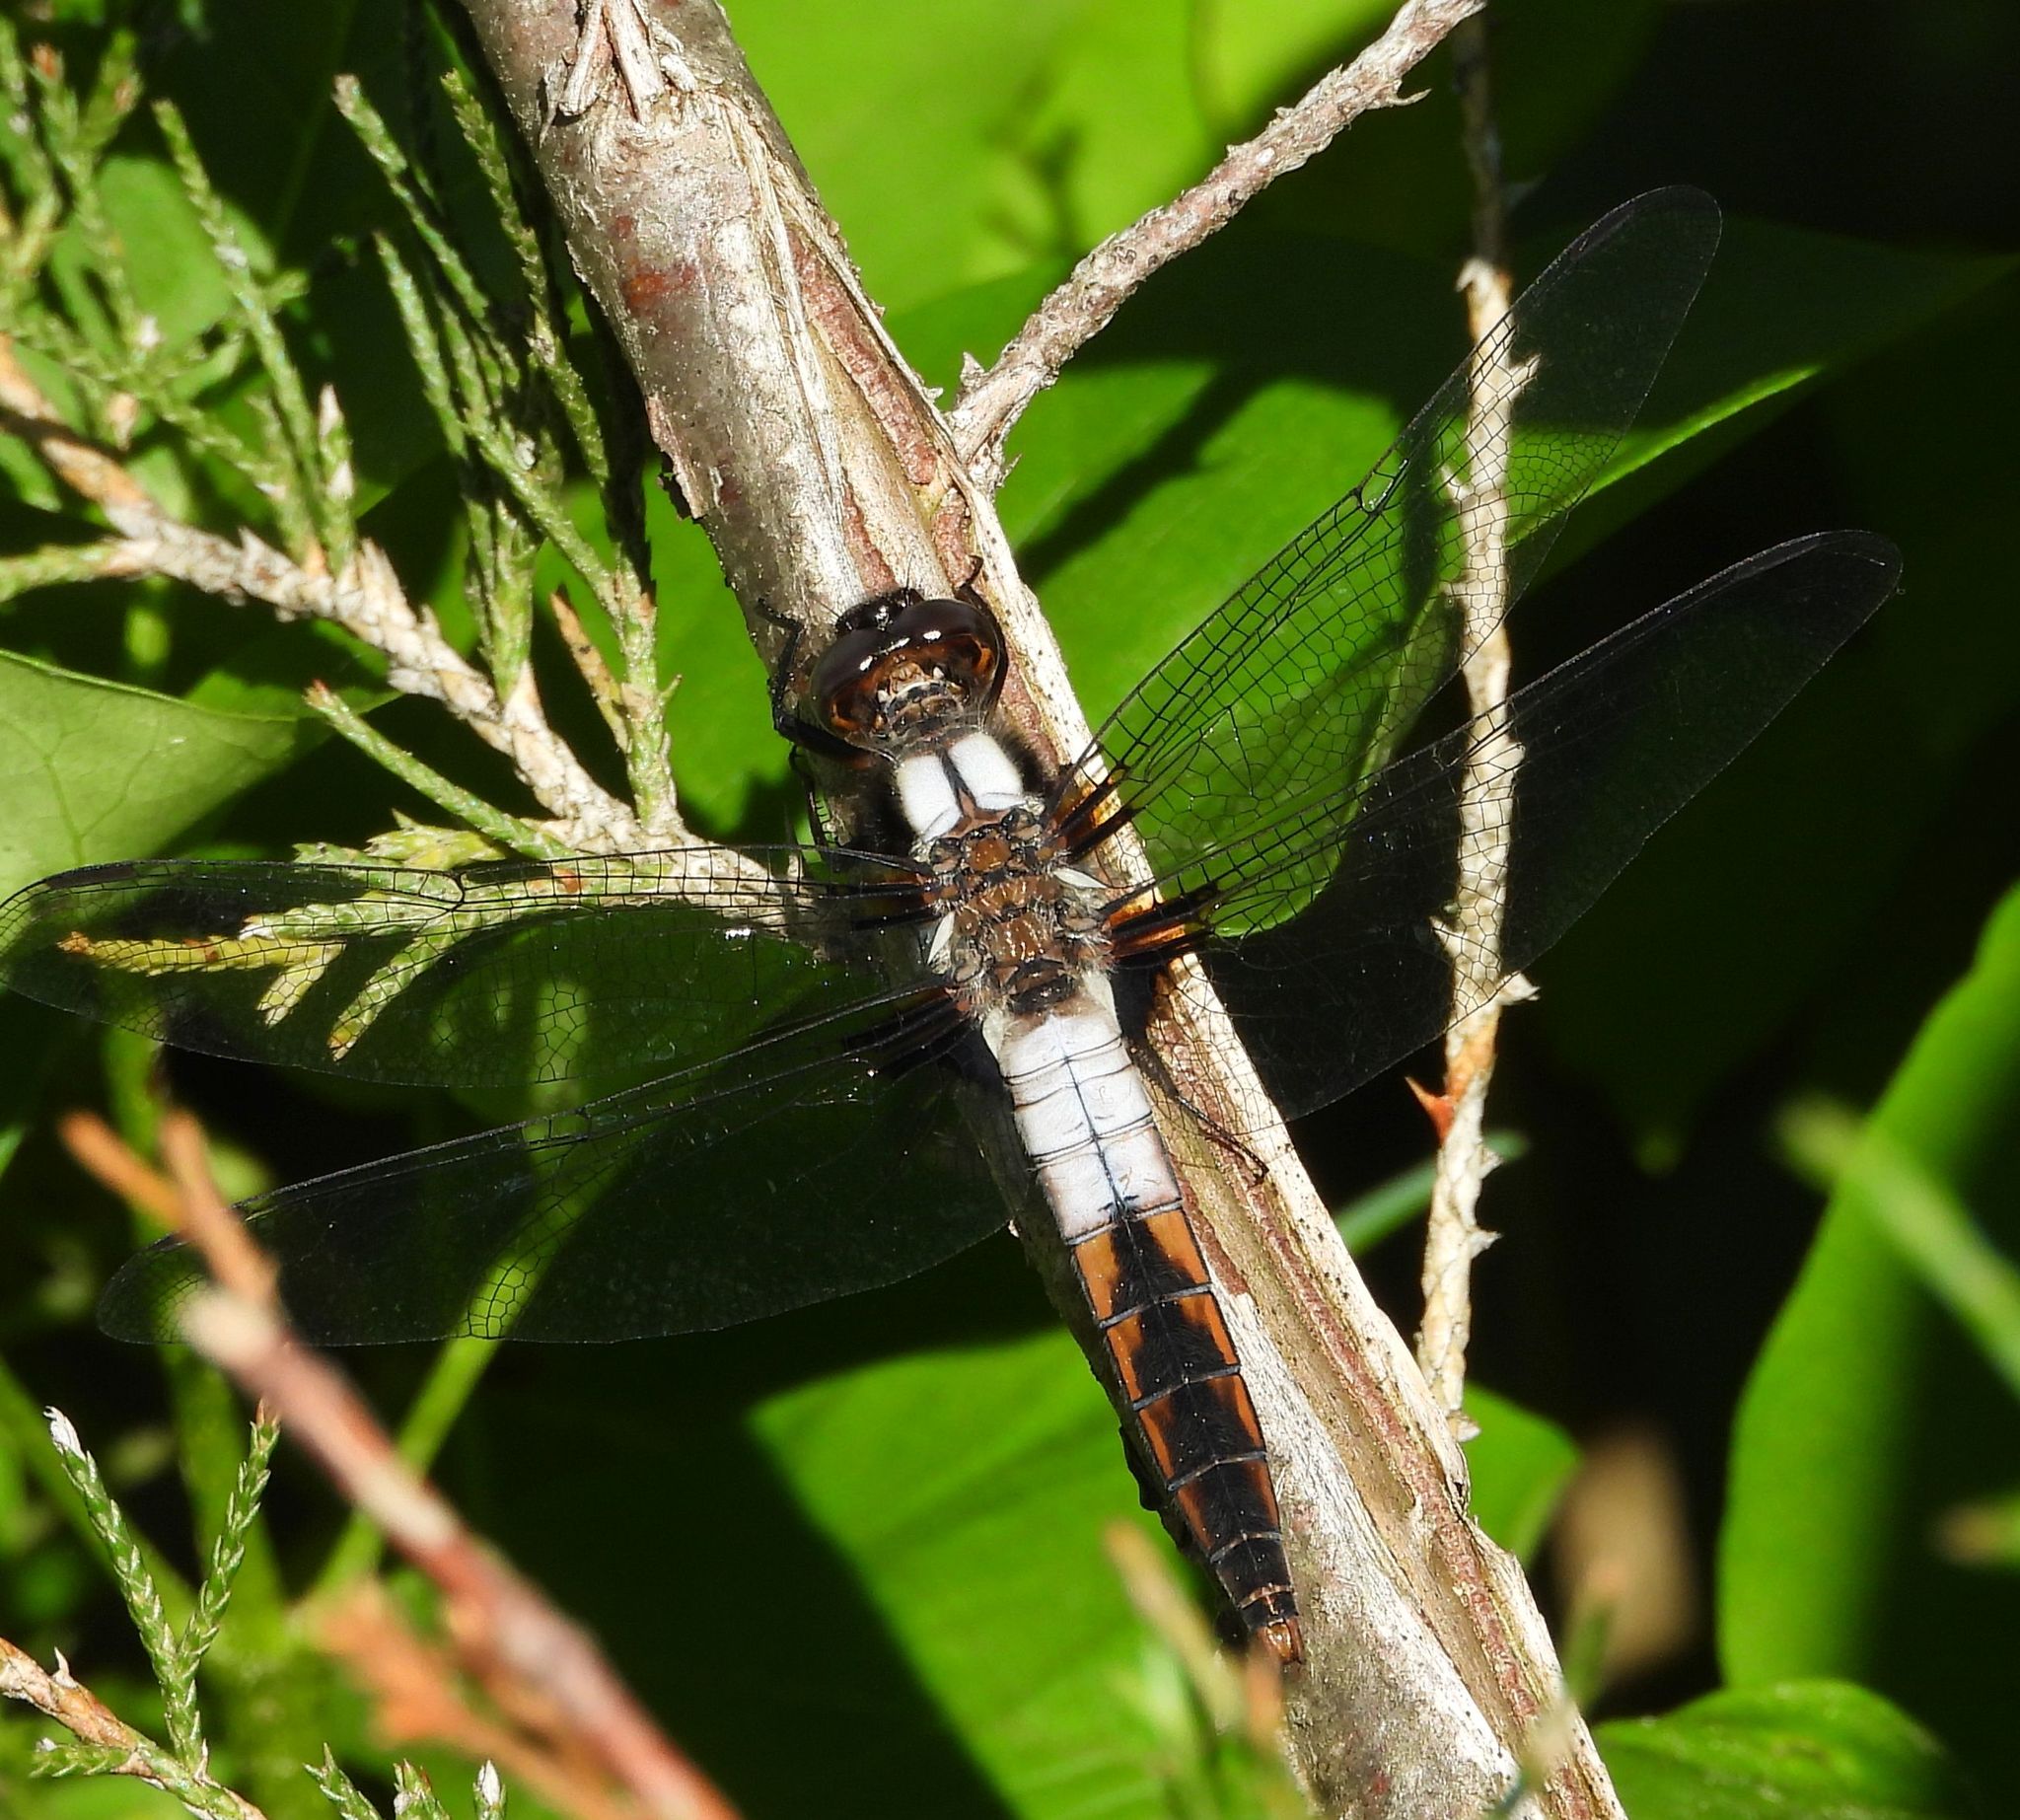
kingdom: Animalia
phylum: Arthropoda
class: Insecta
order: Odonata
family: Libellulidae
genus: Ladona
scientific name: Ladona julia
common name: Chalk-fronted corporal
